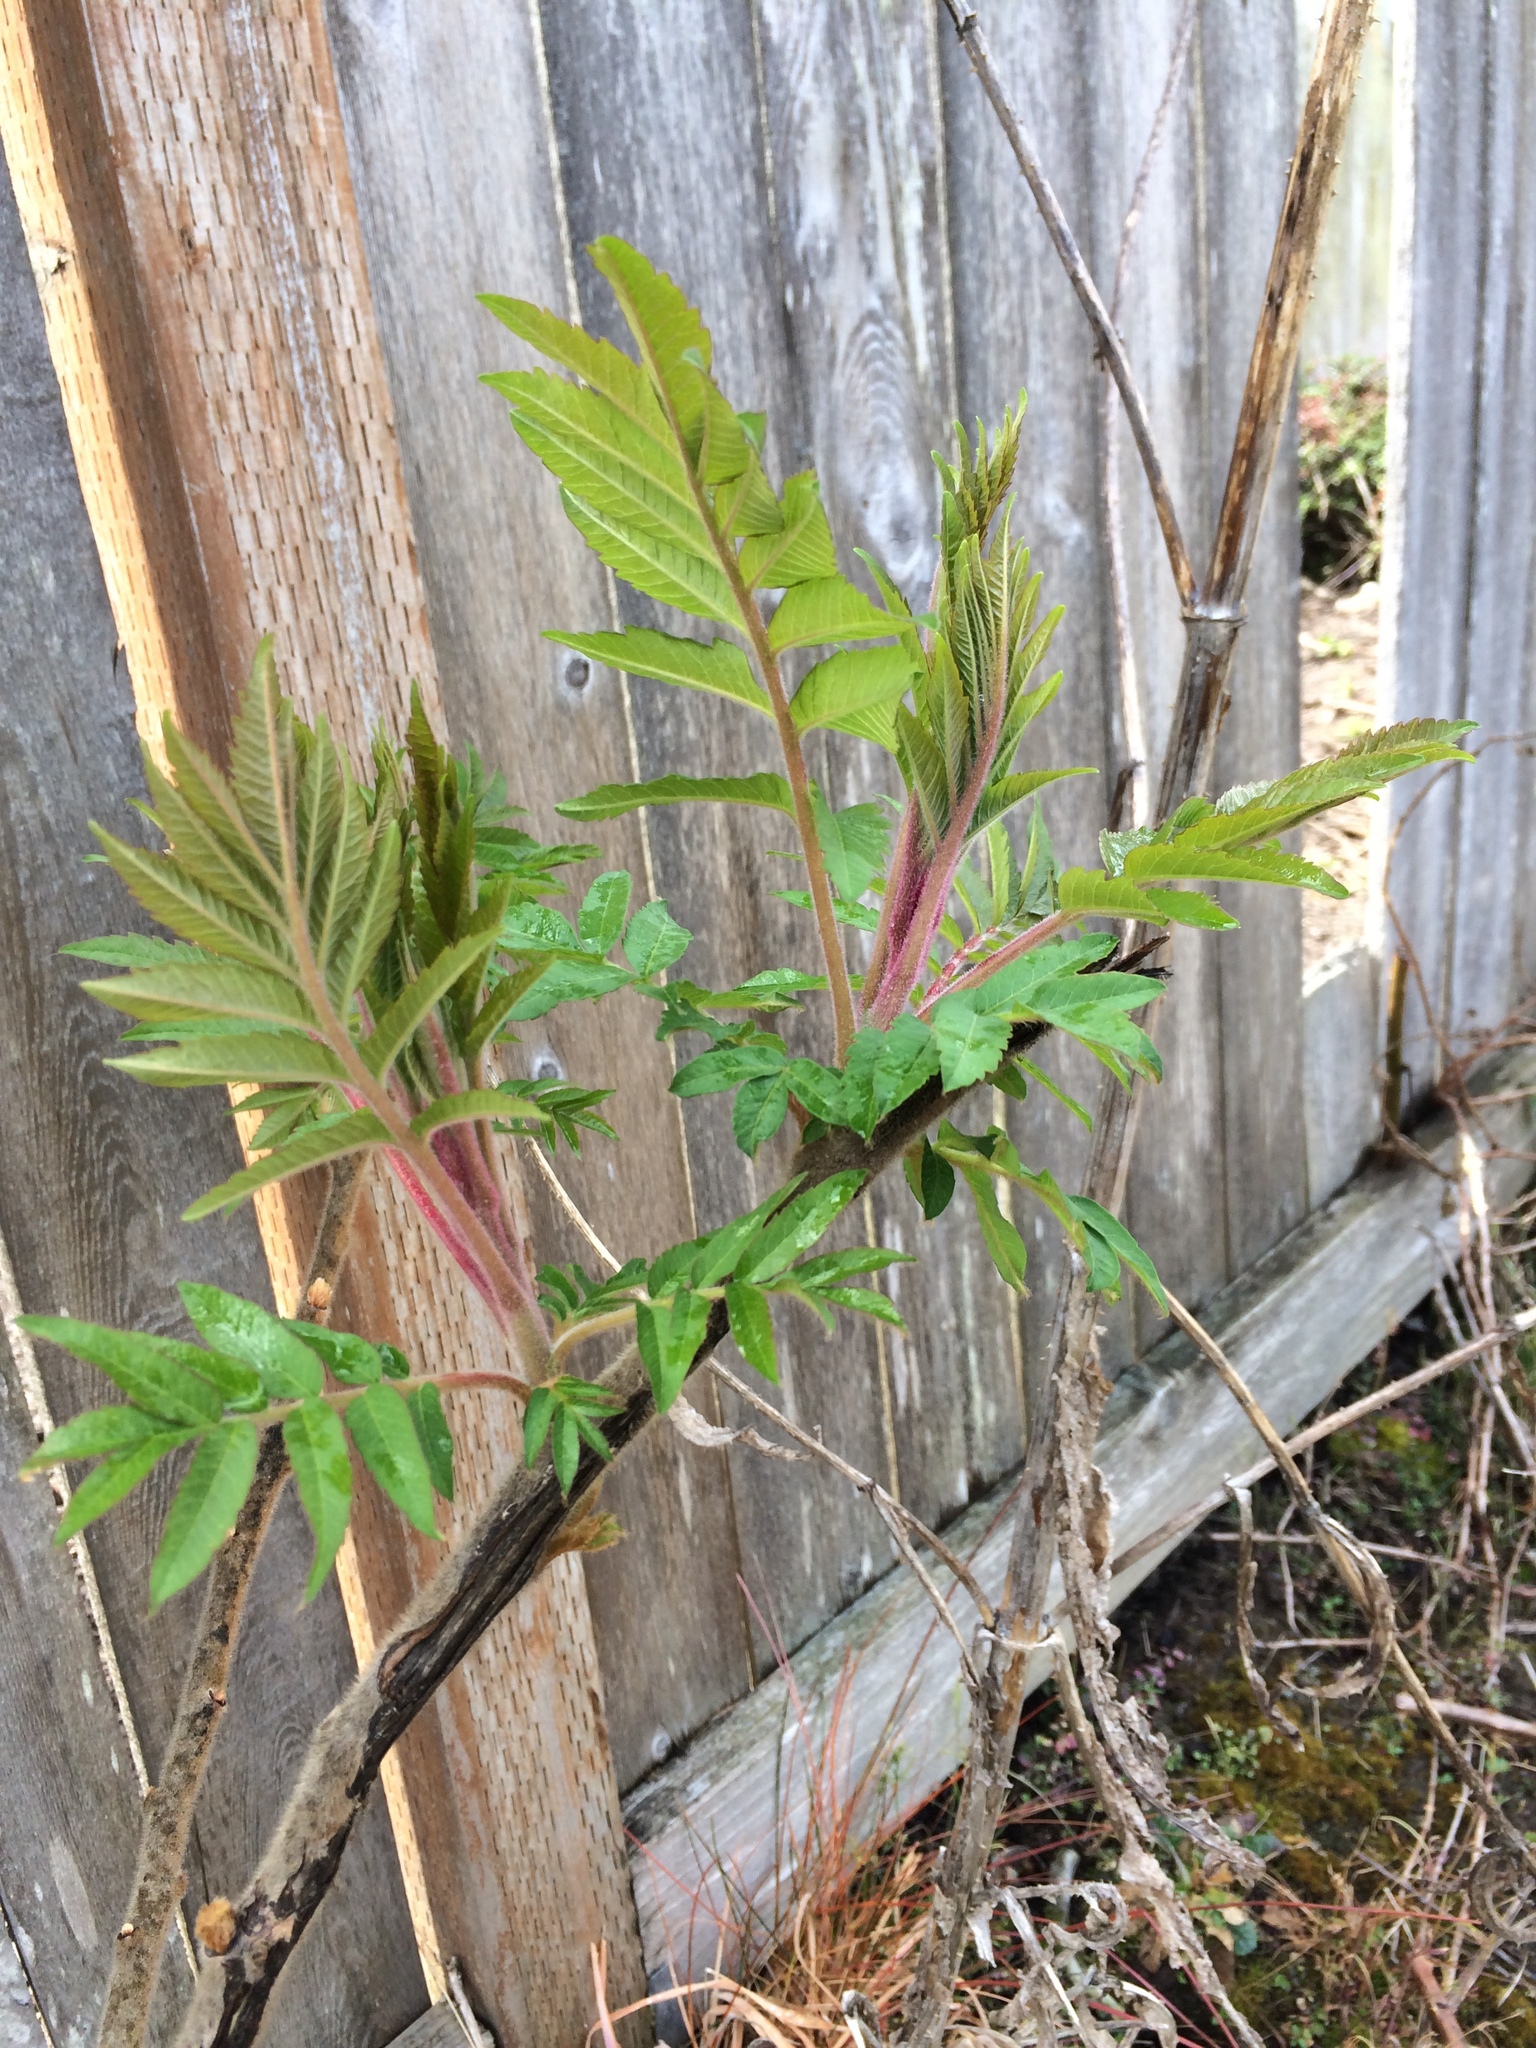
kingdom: Plantae
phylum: Tracheophyta
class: Magnoliopsida
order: Sapindales
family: Anacardiaceae
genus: Rhus
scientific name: Rhus typhina
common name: Staghorn sumac
